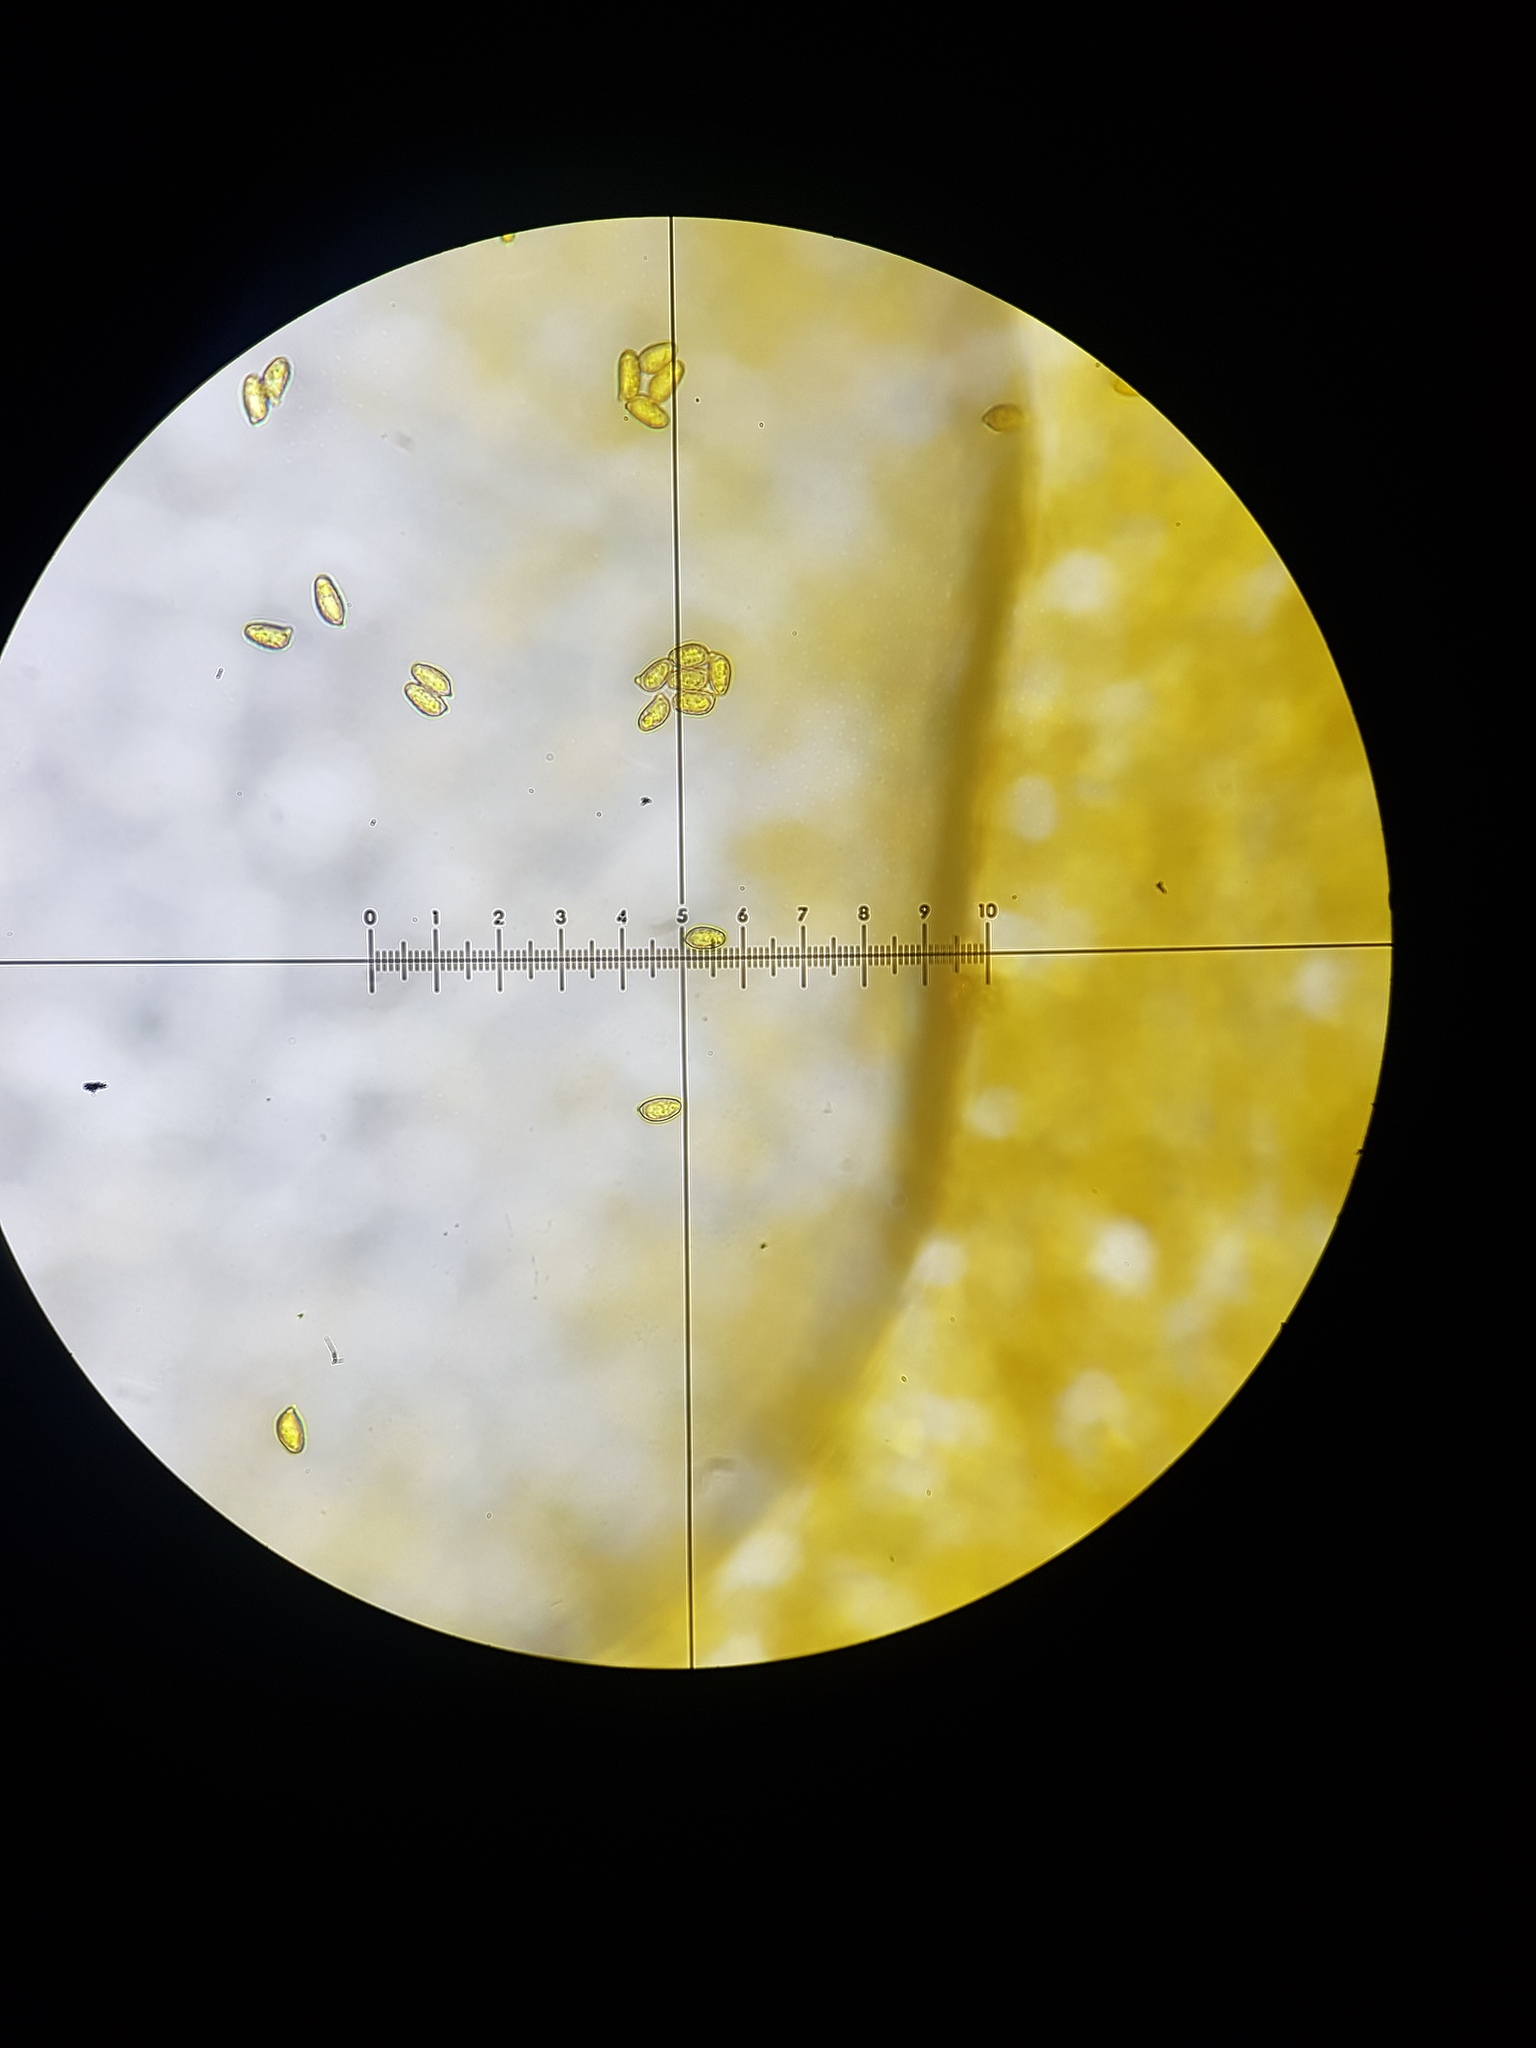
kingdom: Fungi
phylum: Basidiomycota
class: Agaricomycetes
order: Gomphales
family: Gomphaceae
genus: Ramaria
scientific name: Ramaria stricta
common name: Upright coral
